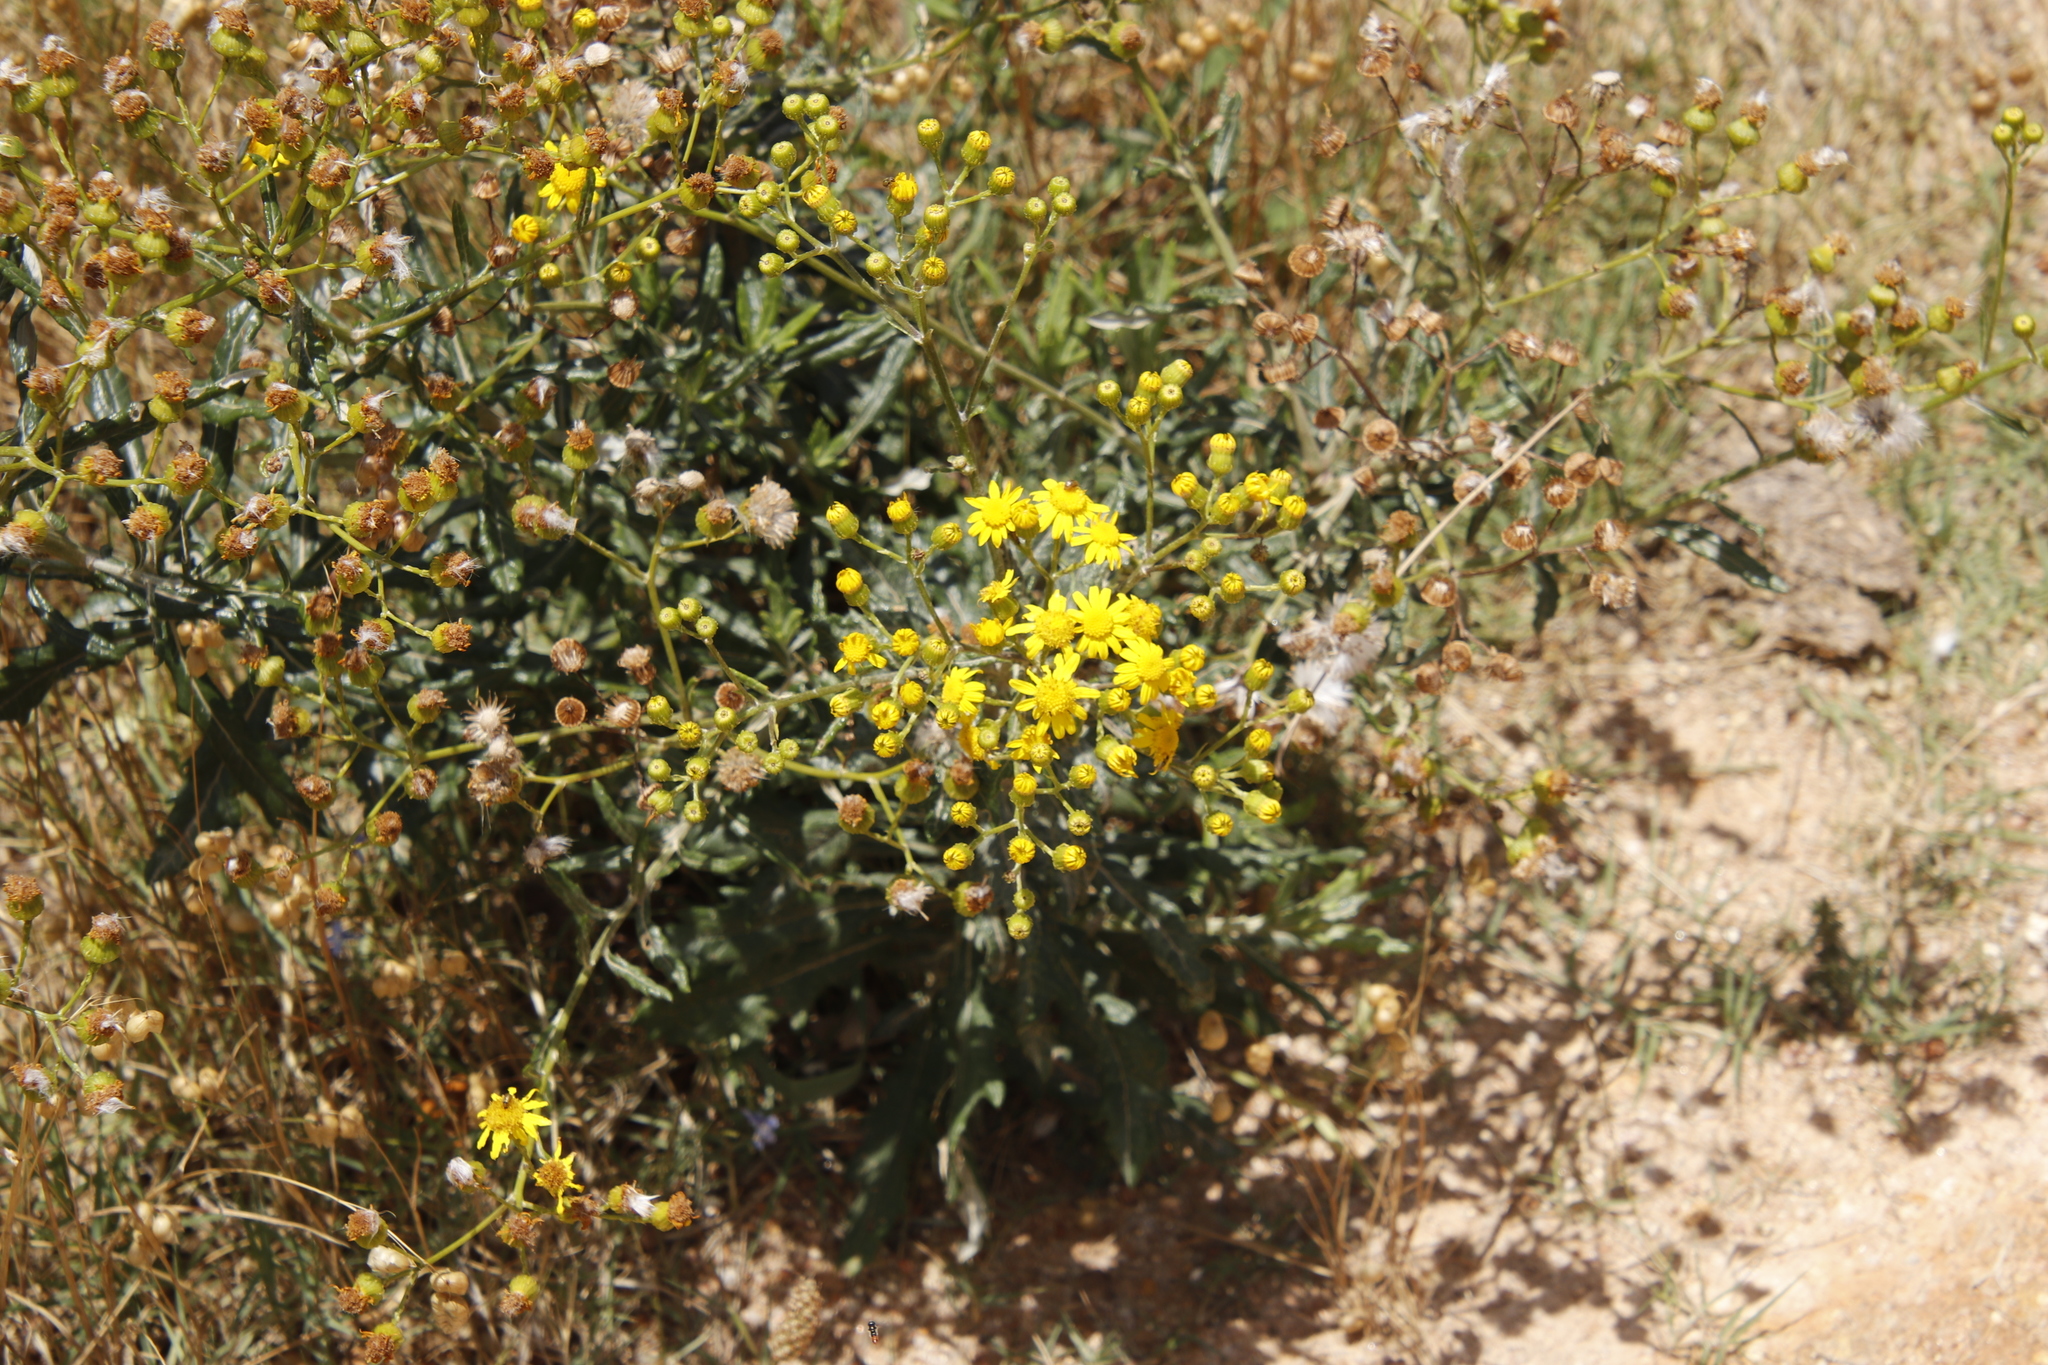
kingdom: Plantae
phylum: Tracheophyta
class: Magnoliopsida
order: Asterales
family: Asteraceae
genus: Senecio
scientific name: Senecio pterophorus
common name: Shoddy ragwort
